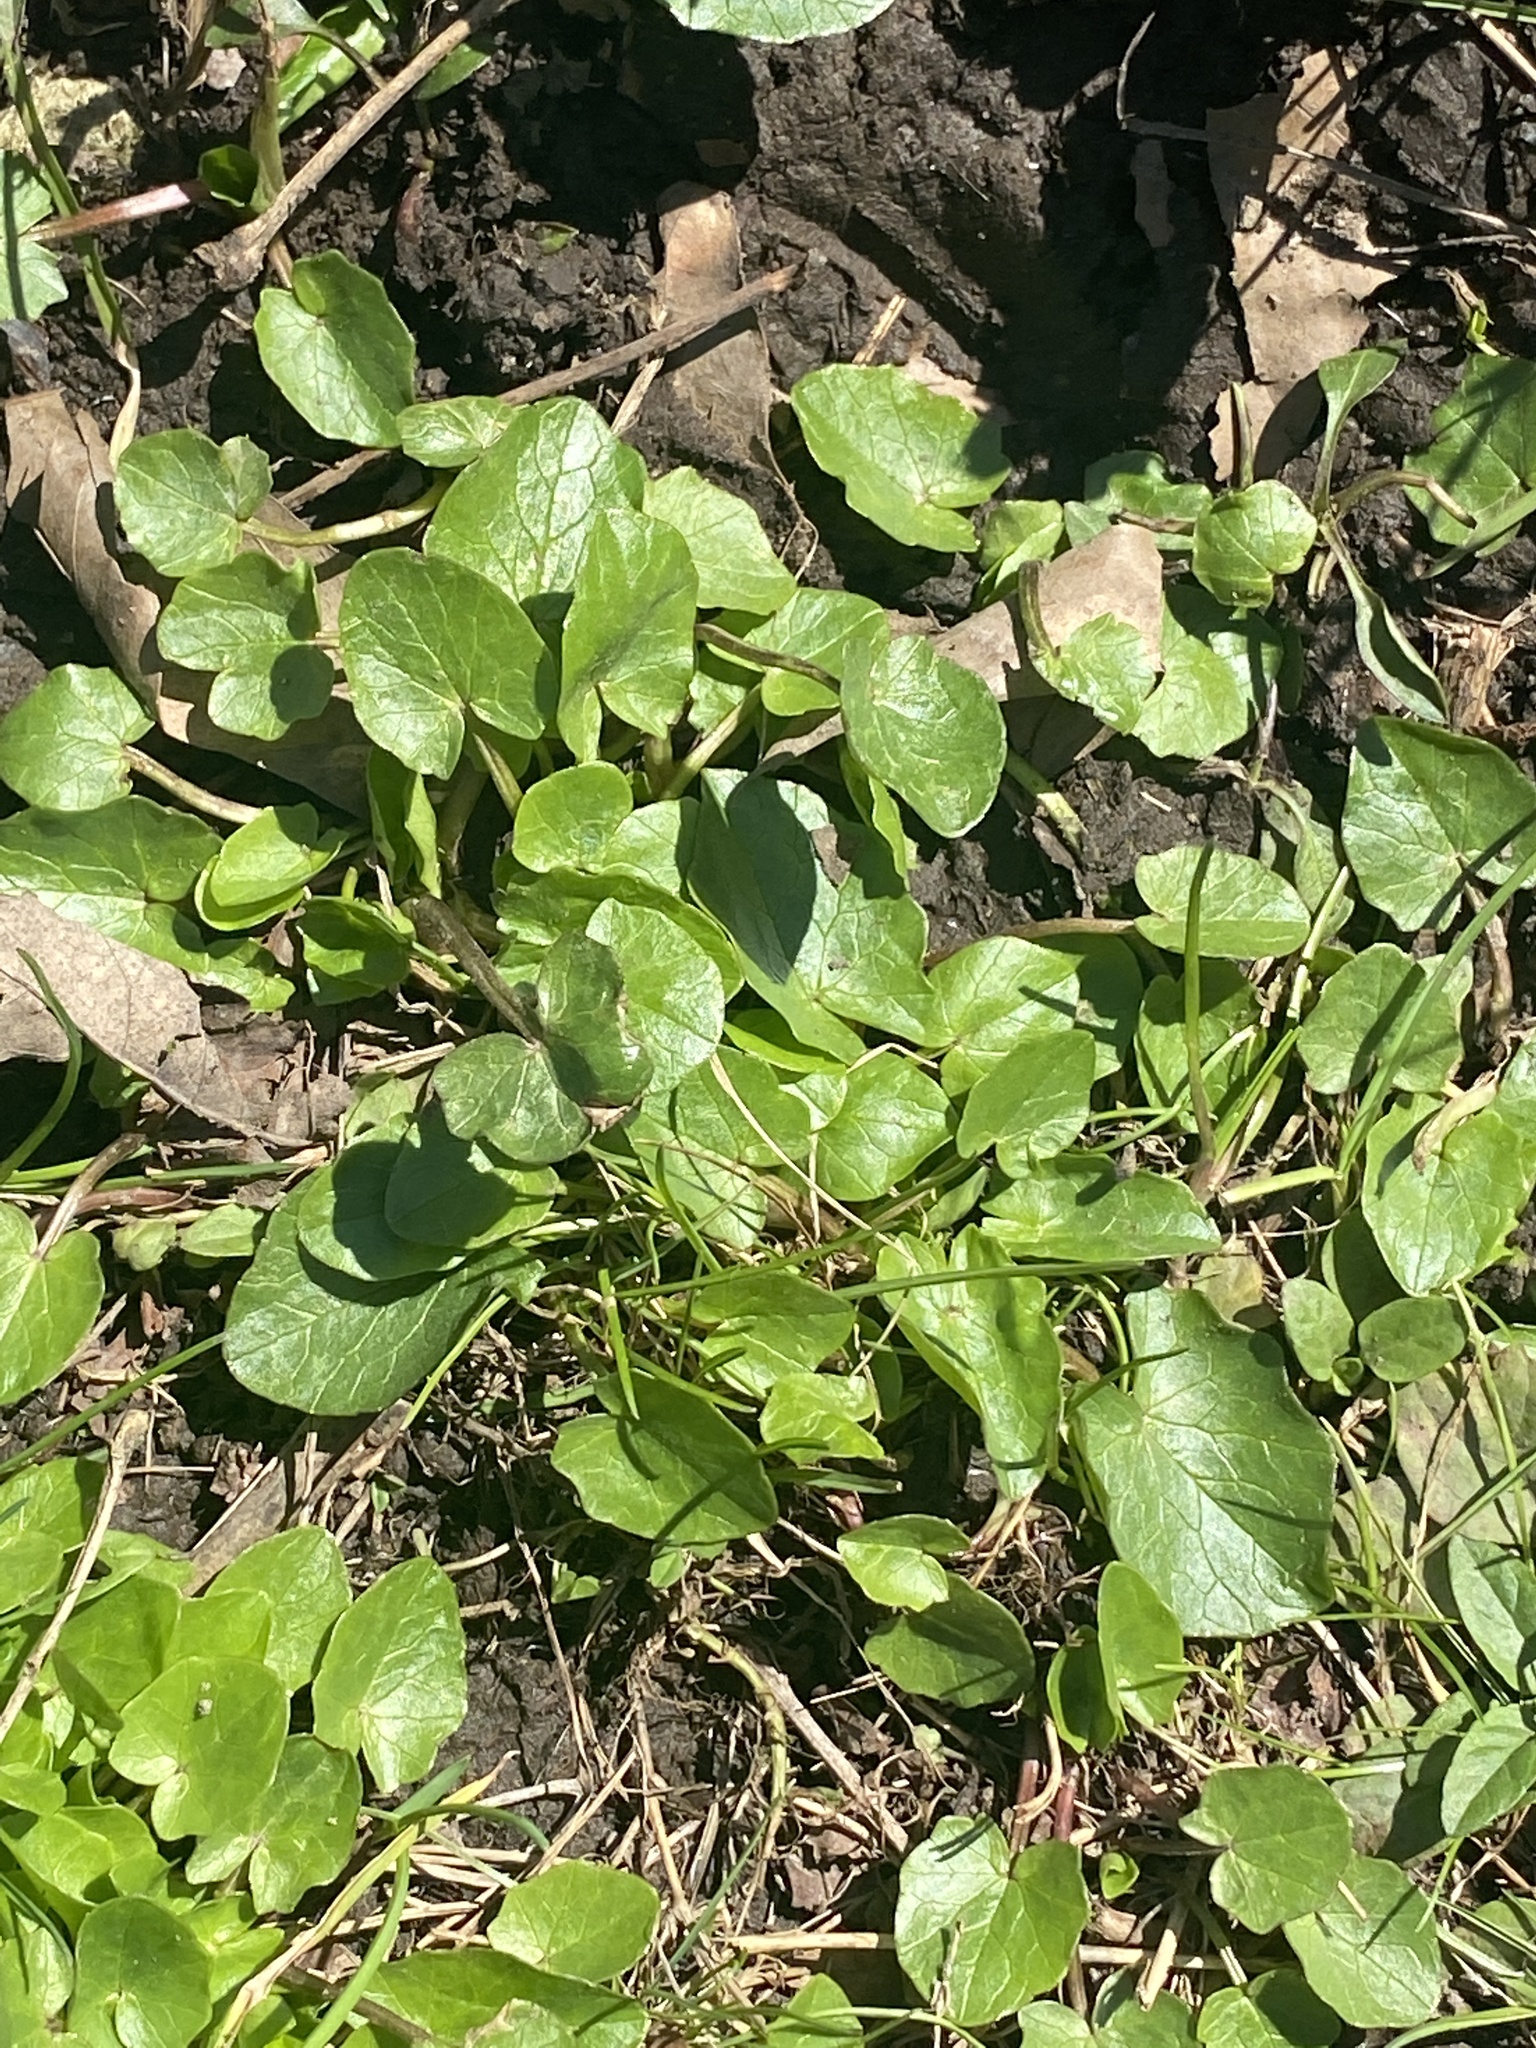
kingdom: Plantae
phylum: Tracheophyta
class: Magnoliopsida
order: Ranunculales
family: Ranunculaceae
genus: Ficaria
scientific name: Ficaria verna
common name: Lesser celandine
